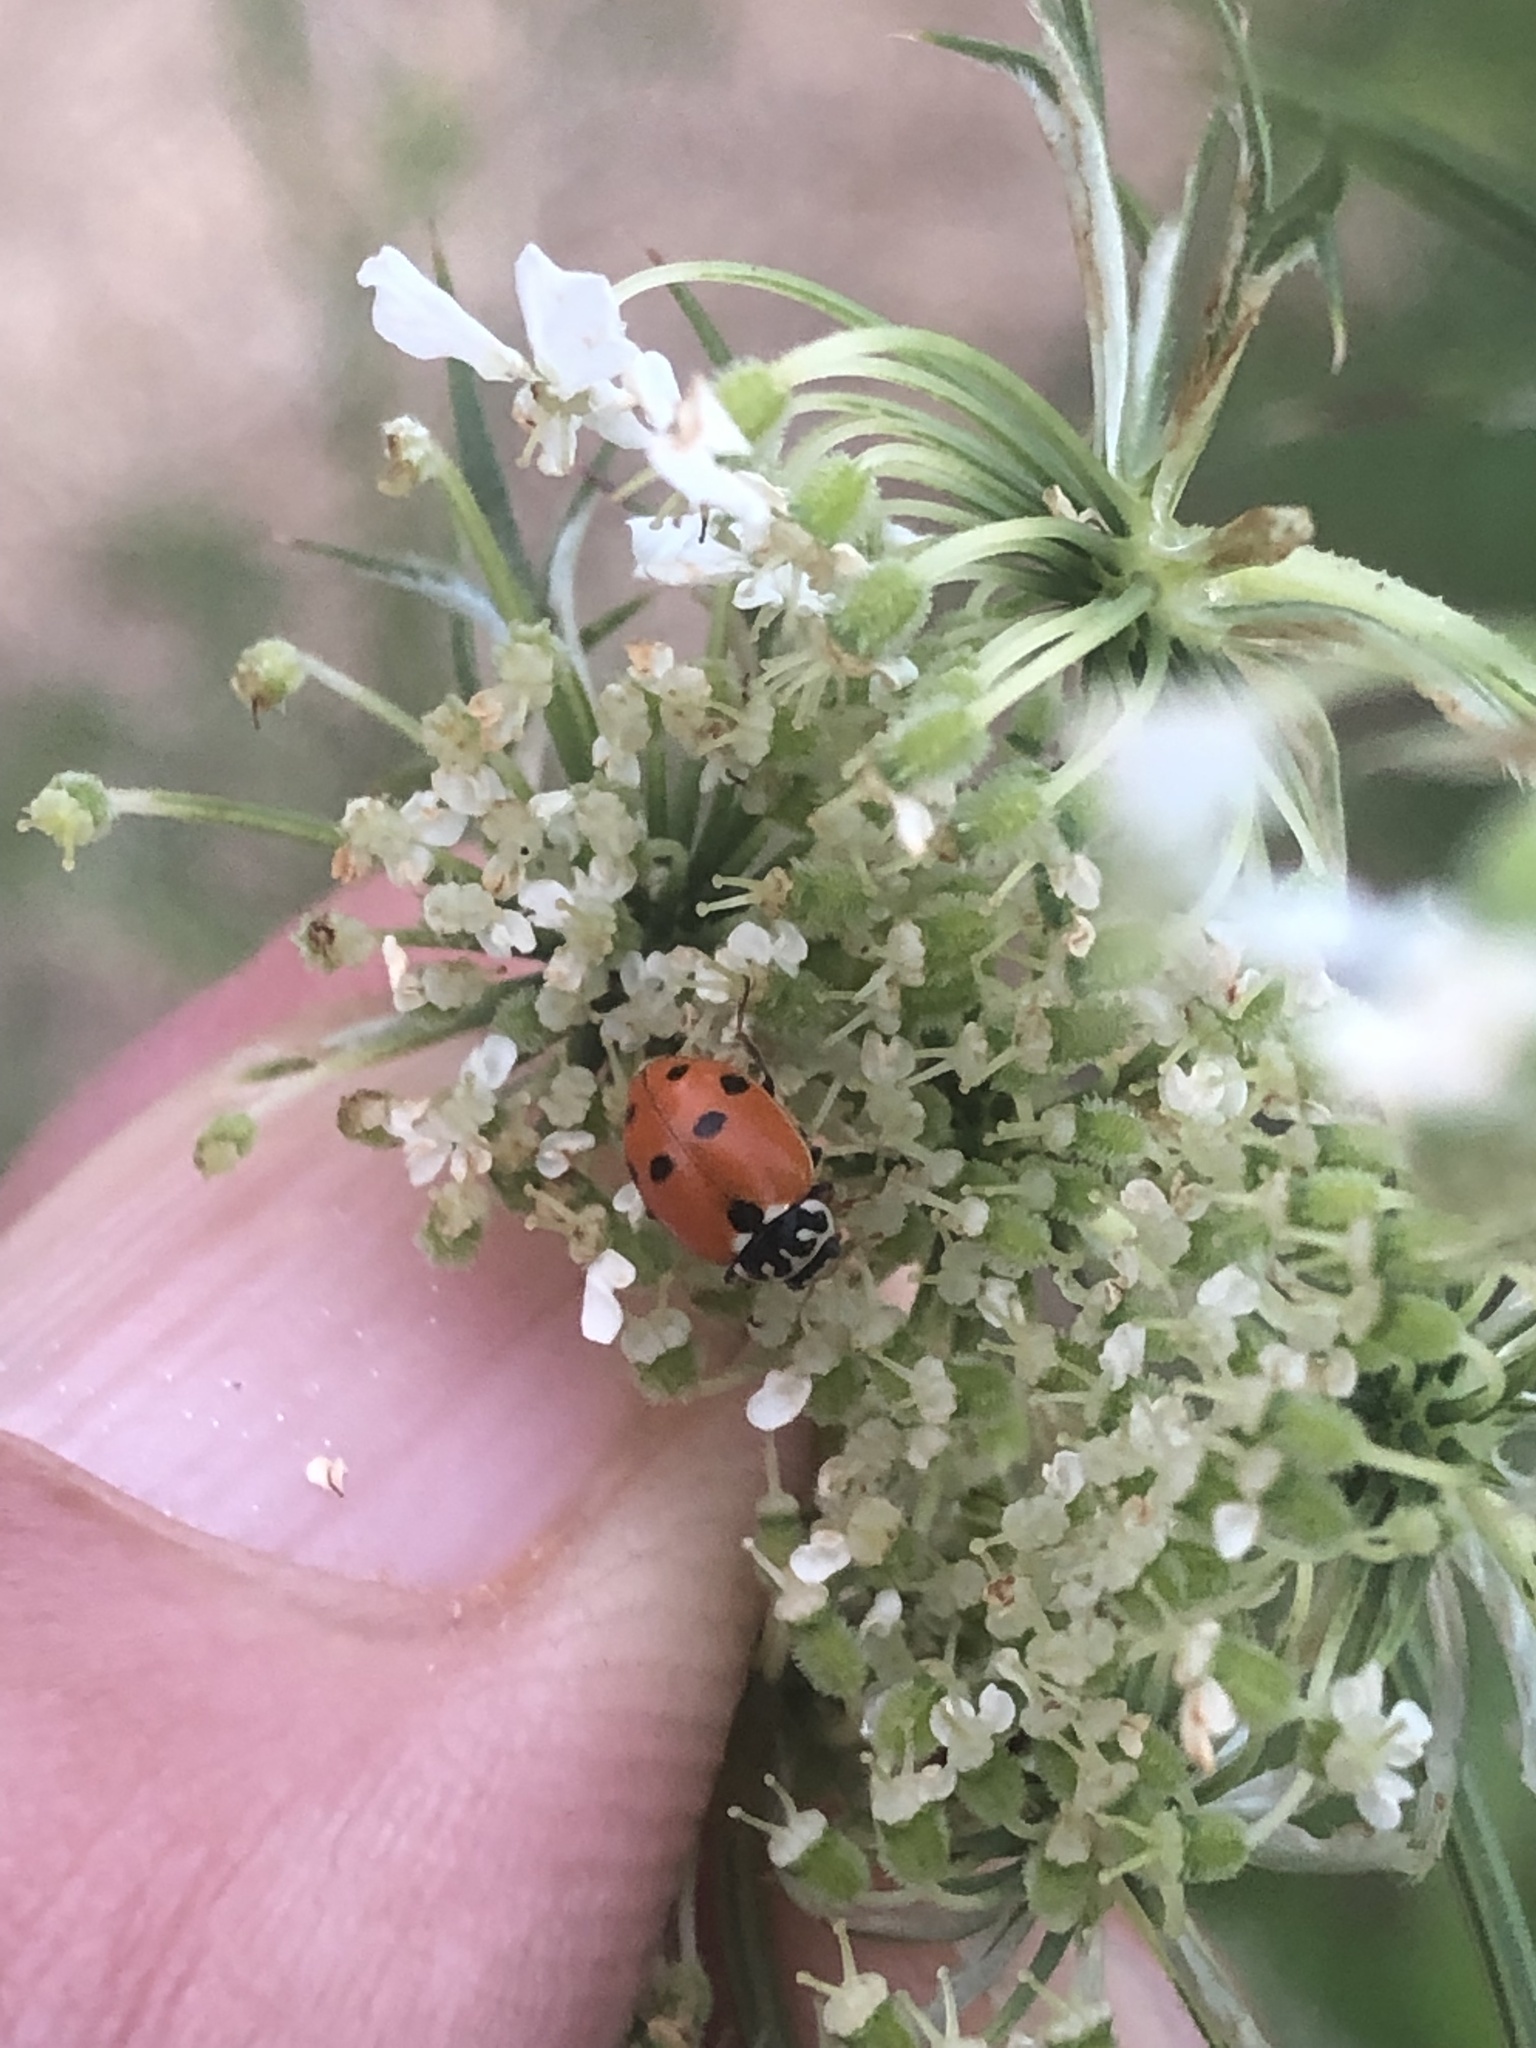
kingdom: Animalia
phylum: Arthropoda
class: Insecta
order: Coleoptera
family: Coccinellidae
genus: Hippodamia
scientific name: Hippodamia variegata
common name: Ladybird beetle
